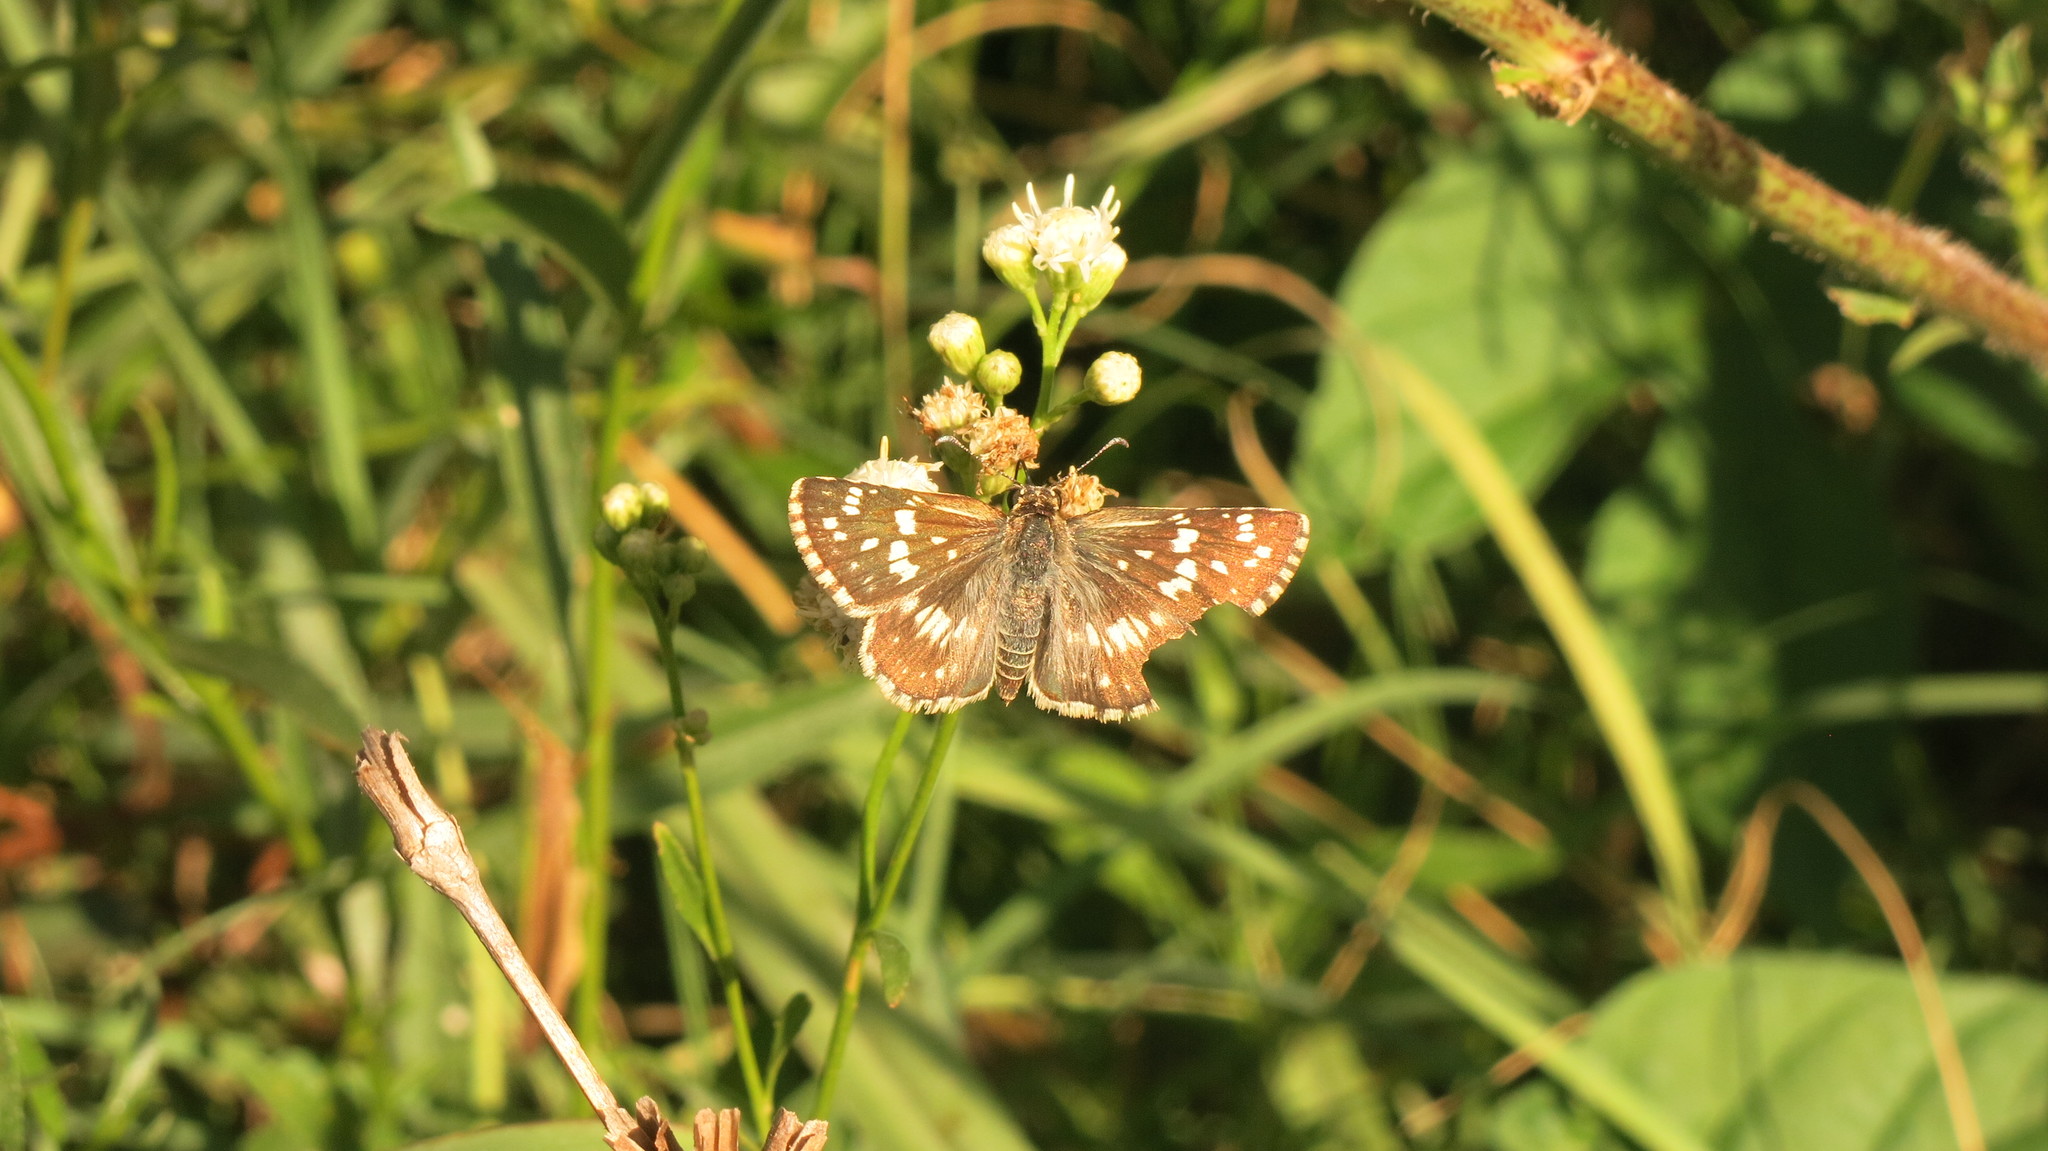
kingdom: Animalia
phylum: Arthropoda
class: Insecta
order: Lepidoptera
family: Hesperiidae
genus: Burnsius
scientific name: Burnsius orcynoides
